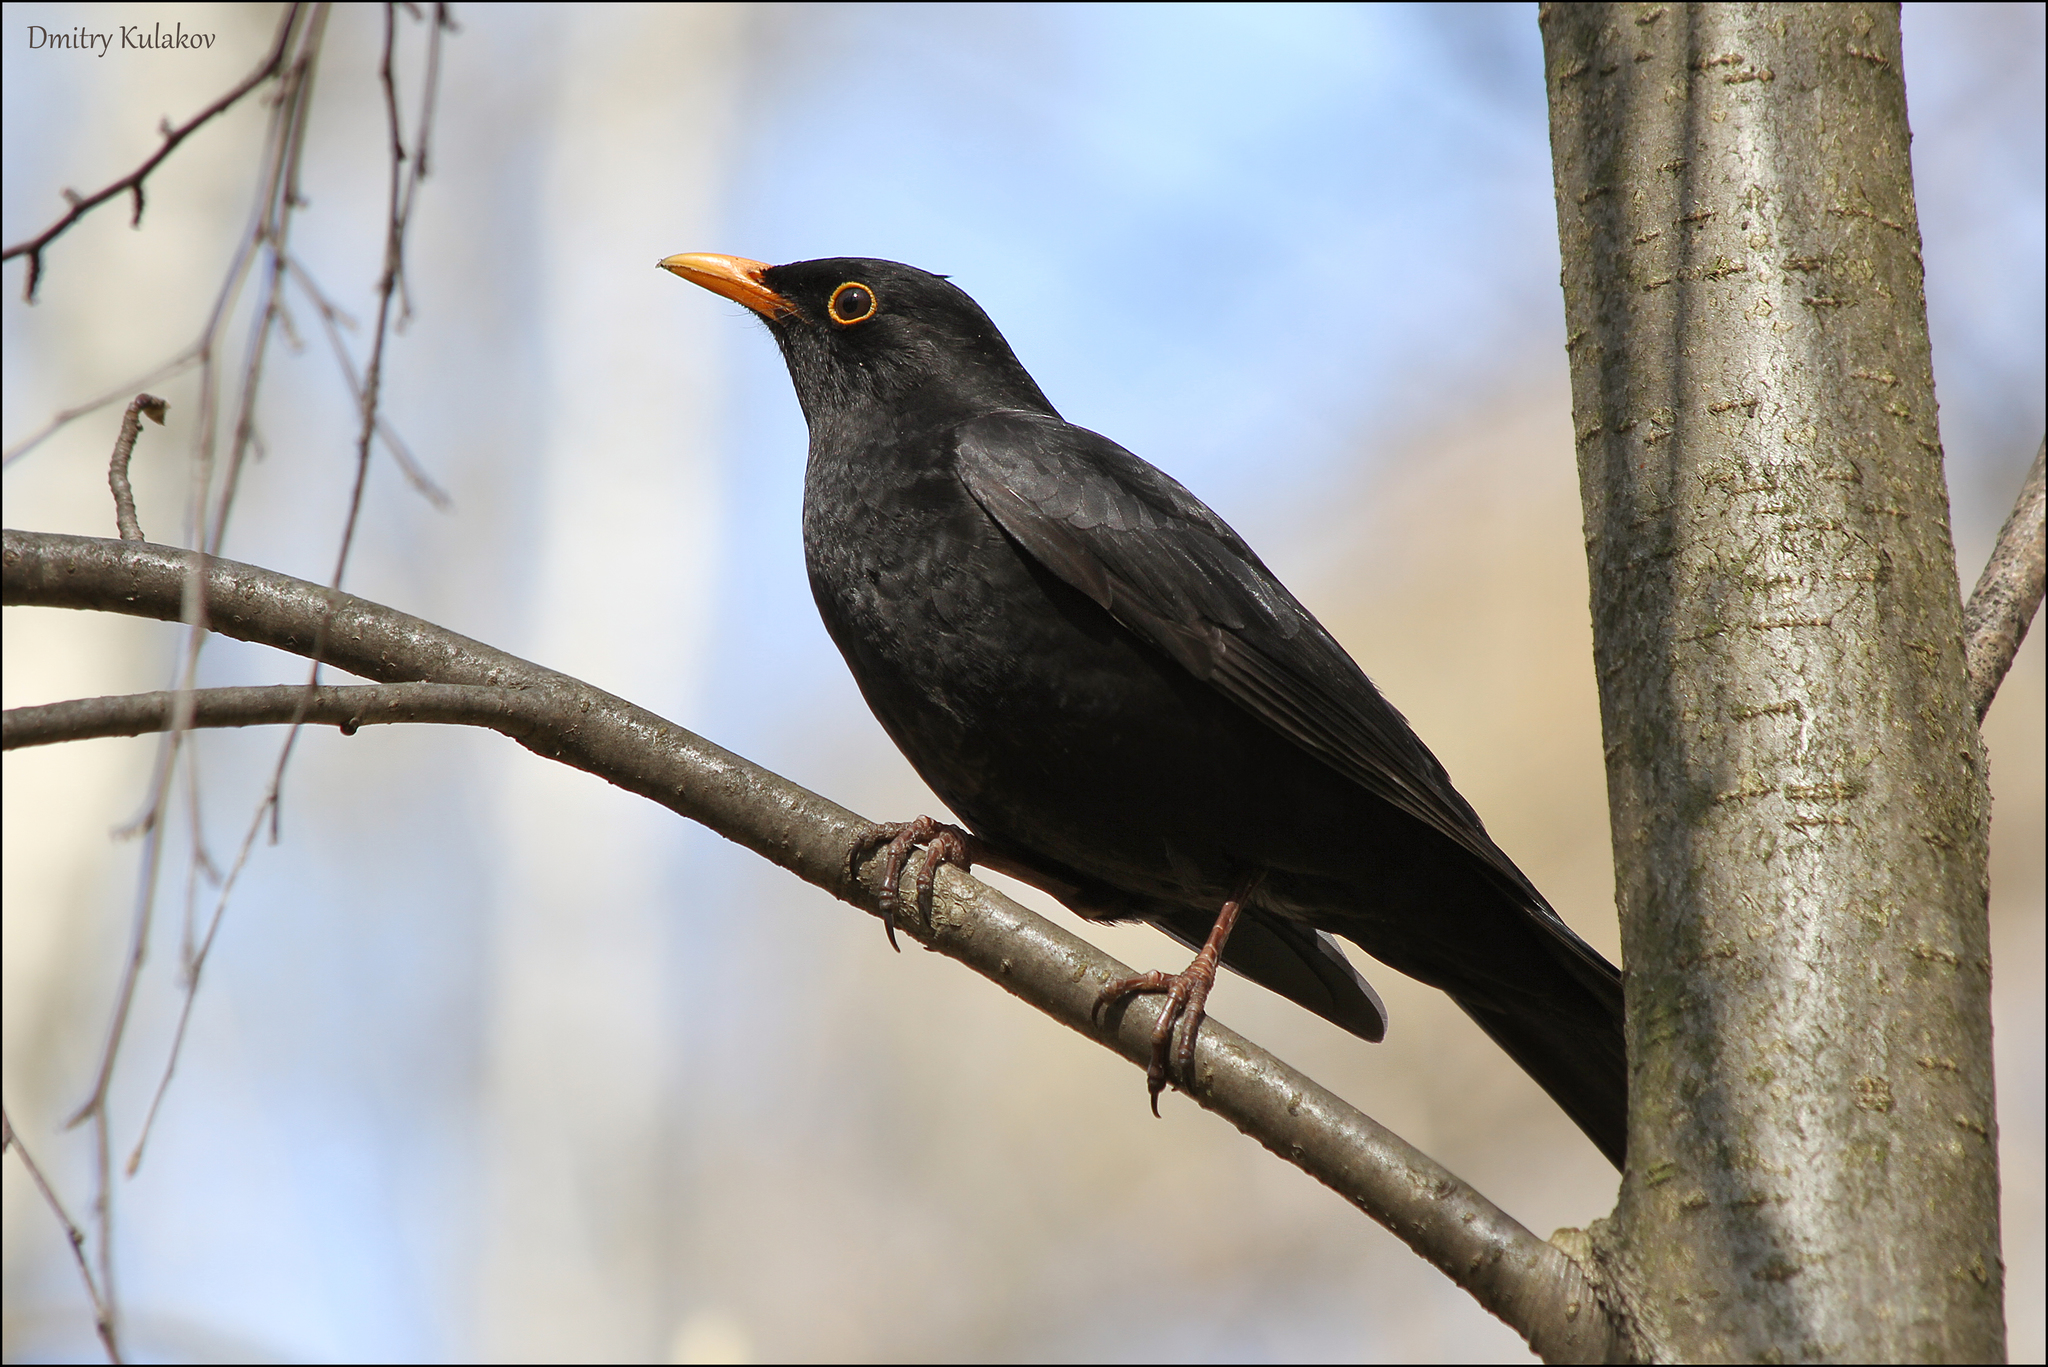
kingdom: Animalia
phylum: Chordata
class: Aves
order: Passeriformes
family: Turdidae
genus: Turdus
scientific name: Turdus merula
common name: Common blackbird
